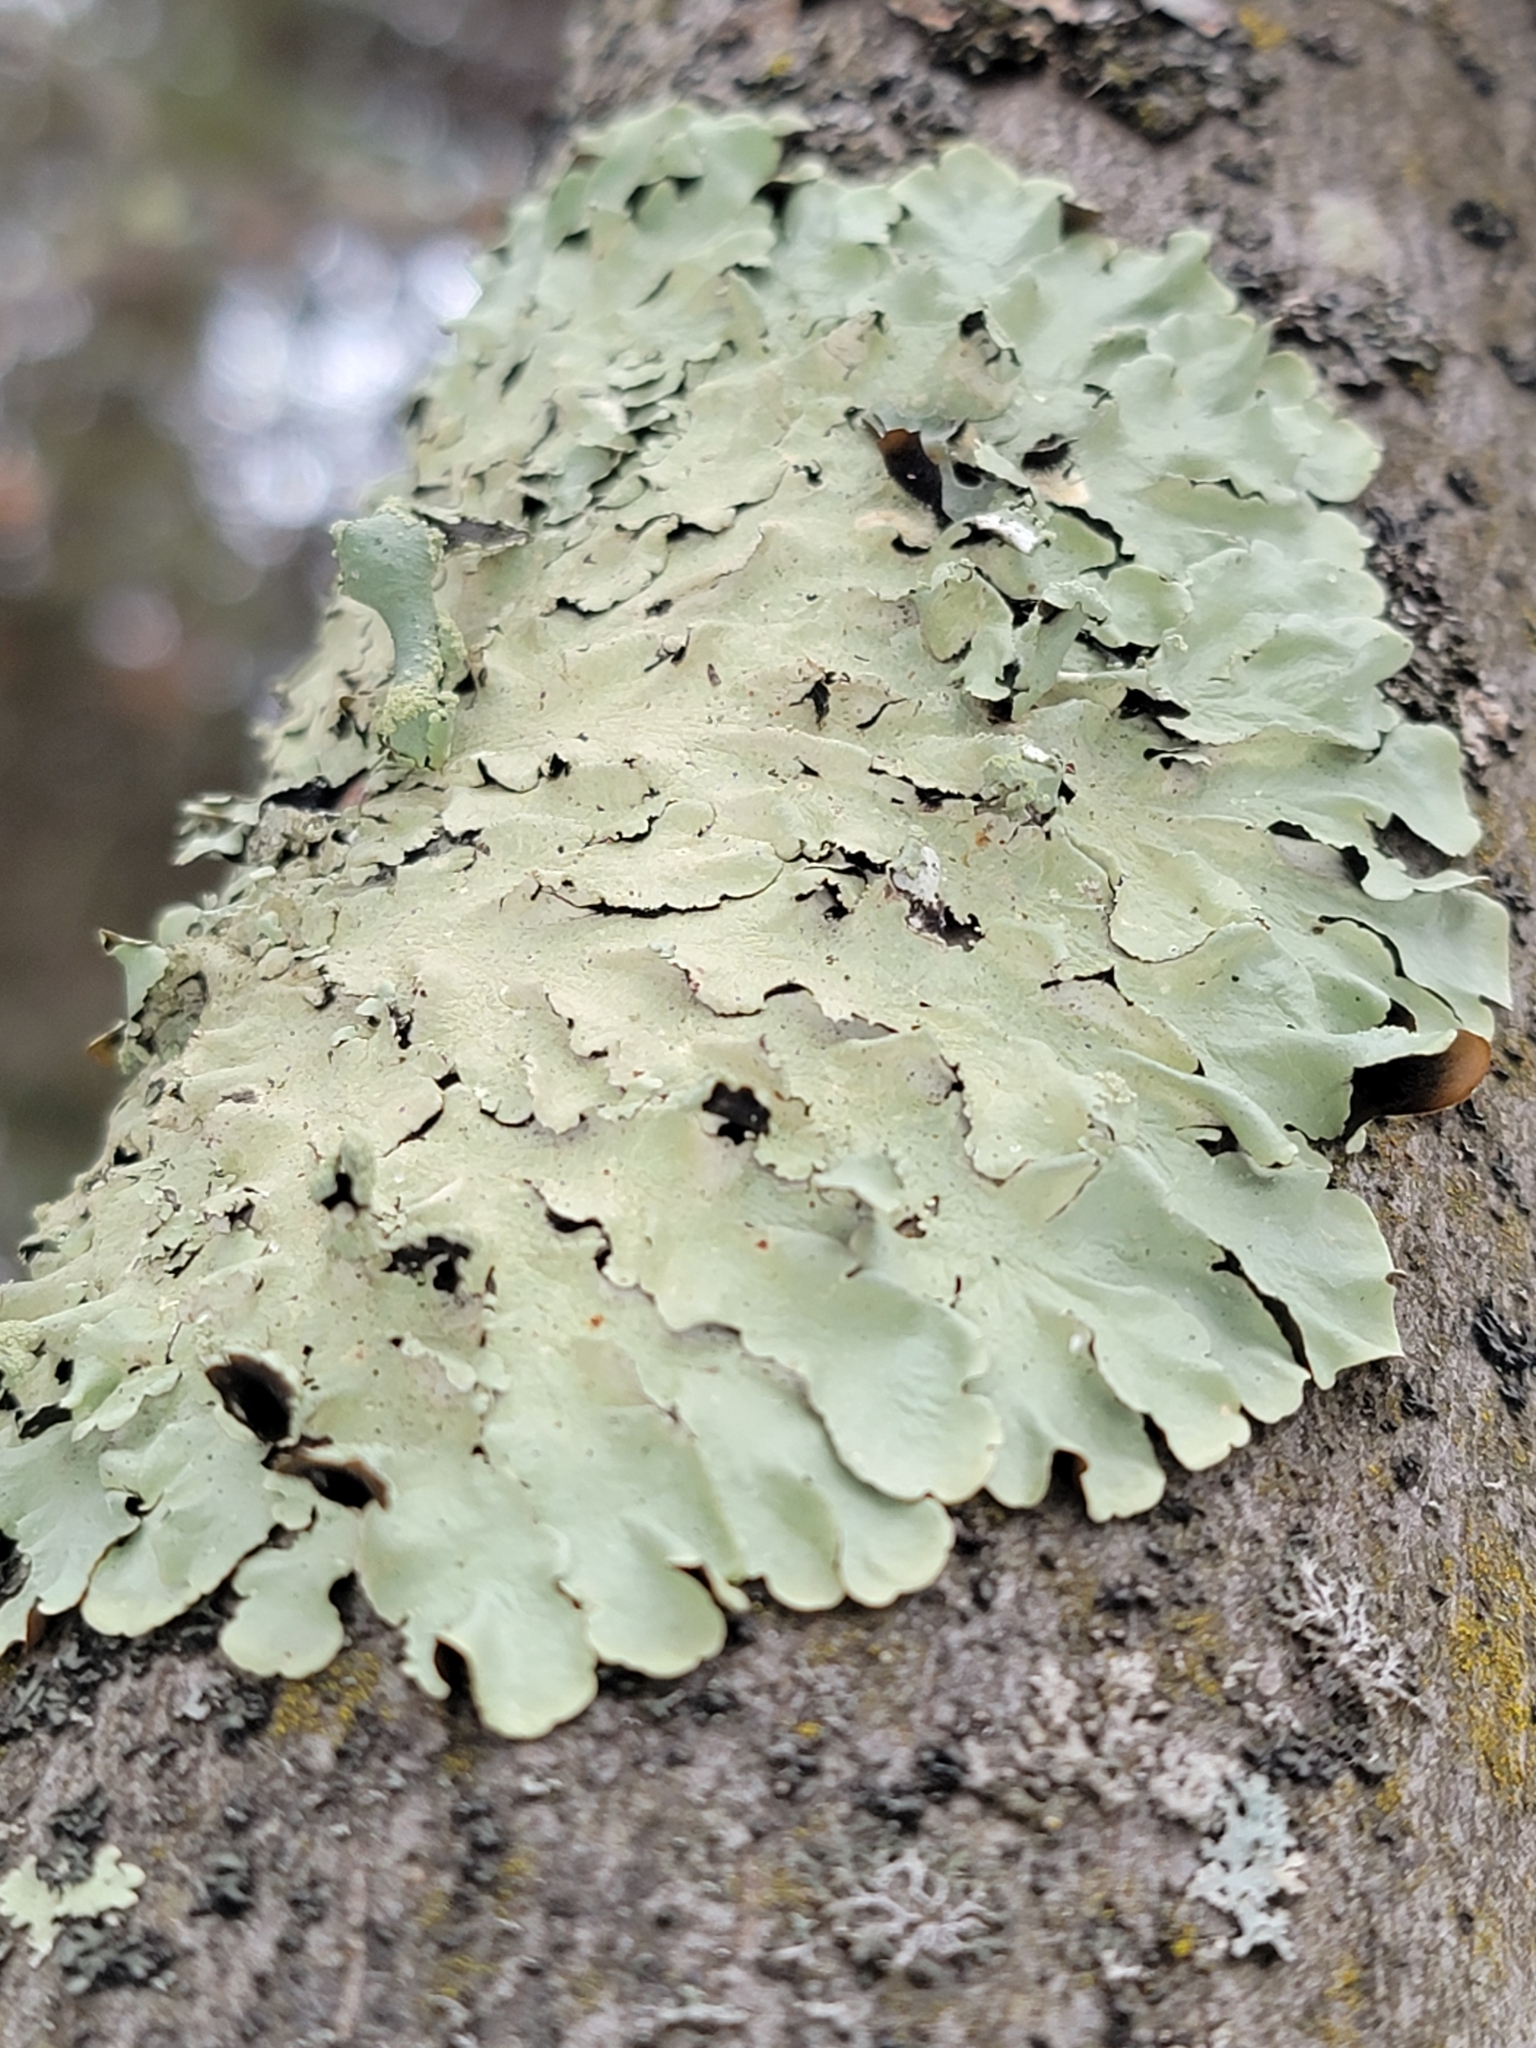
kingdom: Fungi
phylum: Ascomycota
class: Lecanoromycetes
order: Lecanorales
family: Parmeliaceae
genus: Flavoparmelia
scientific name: Flavoparmelia caperata
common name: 40-mile per hour lichen
